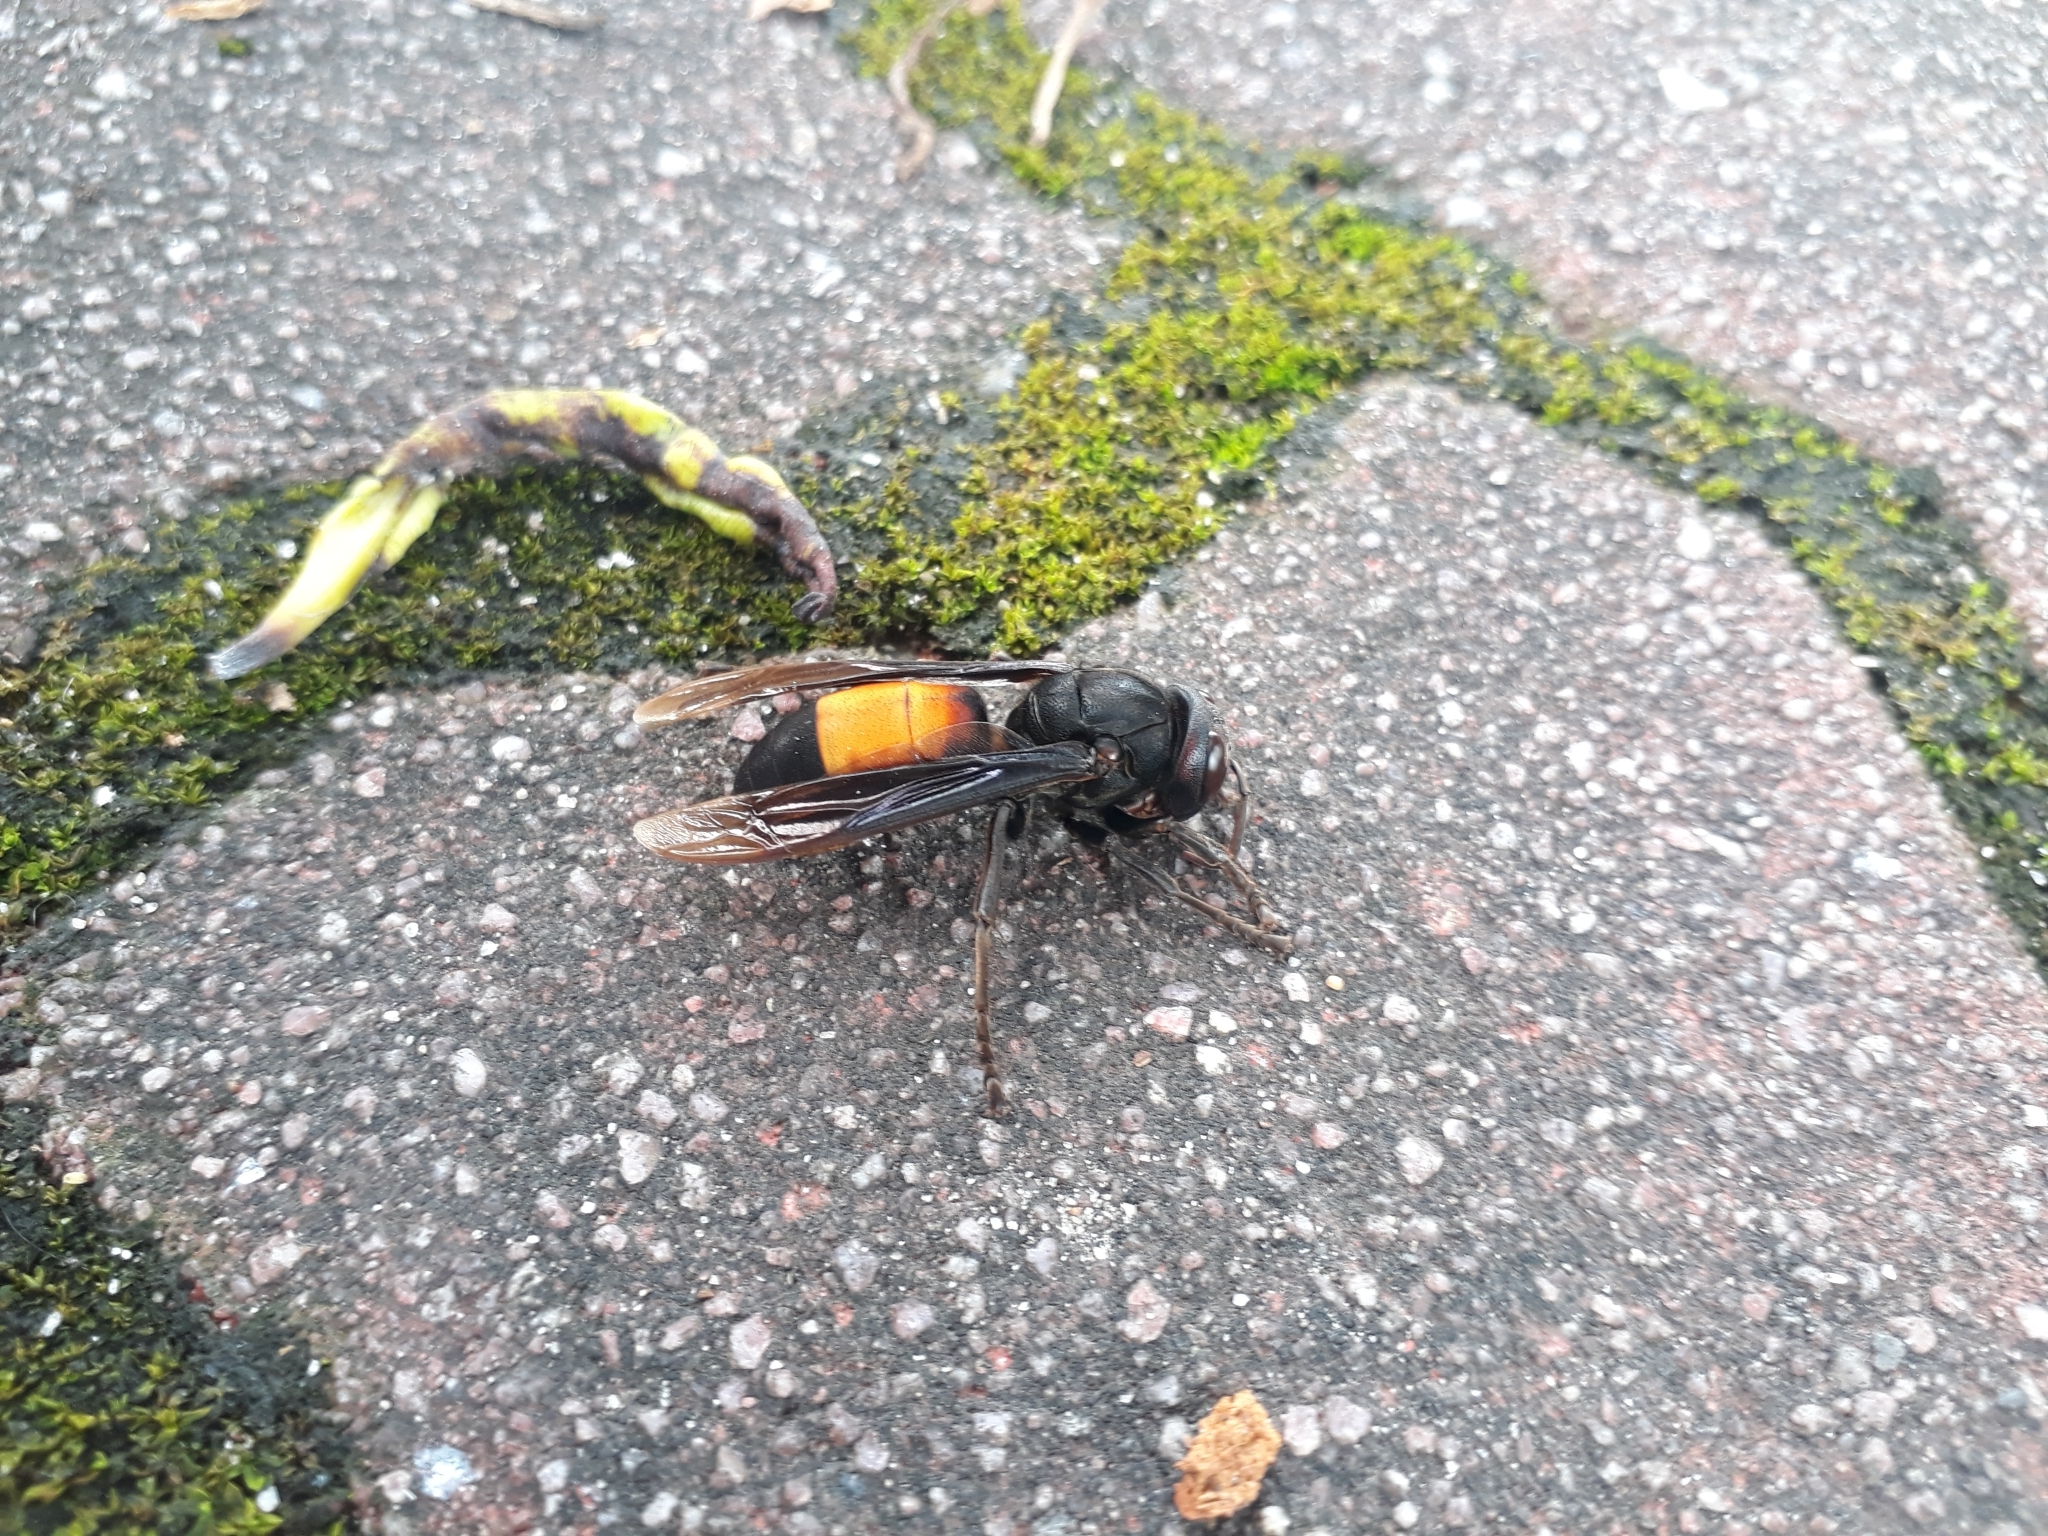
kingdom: Animalia
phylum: Arthropoda
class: Insecta
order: Hymenoptera
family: Vespidae
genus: Vespa
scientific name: Vespa affinis
